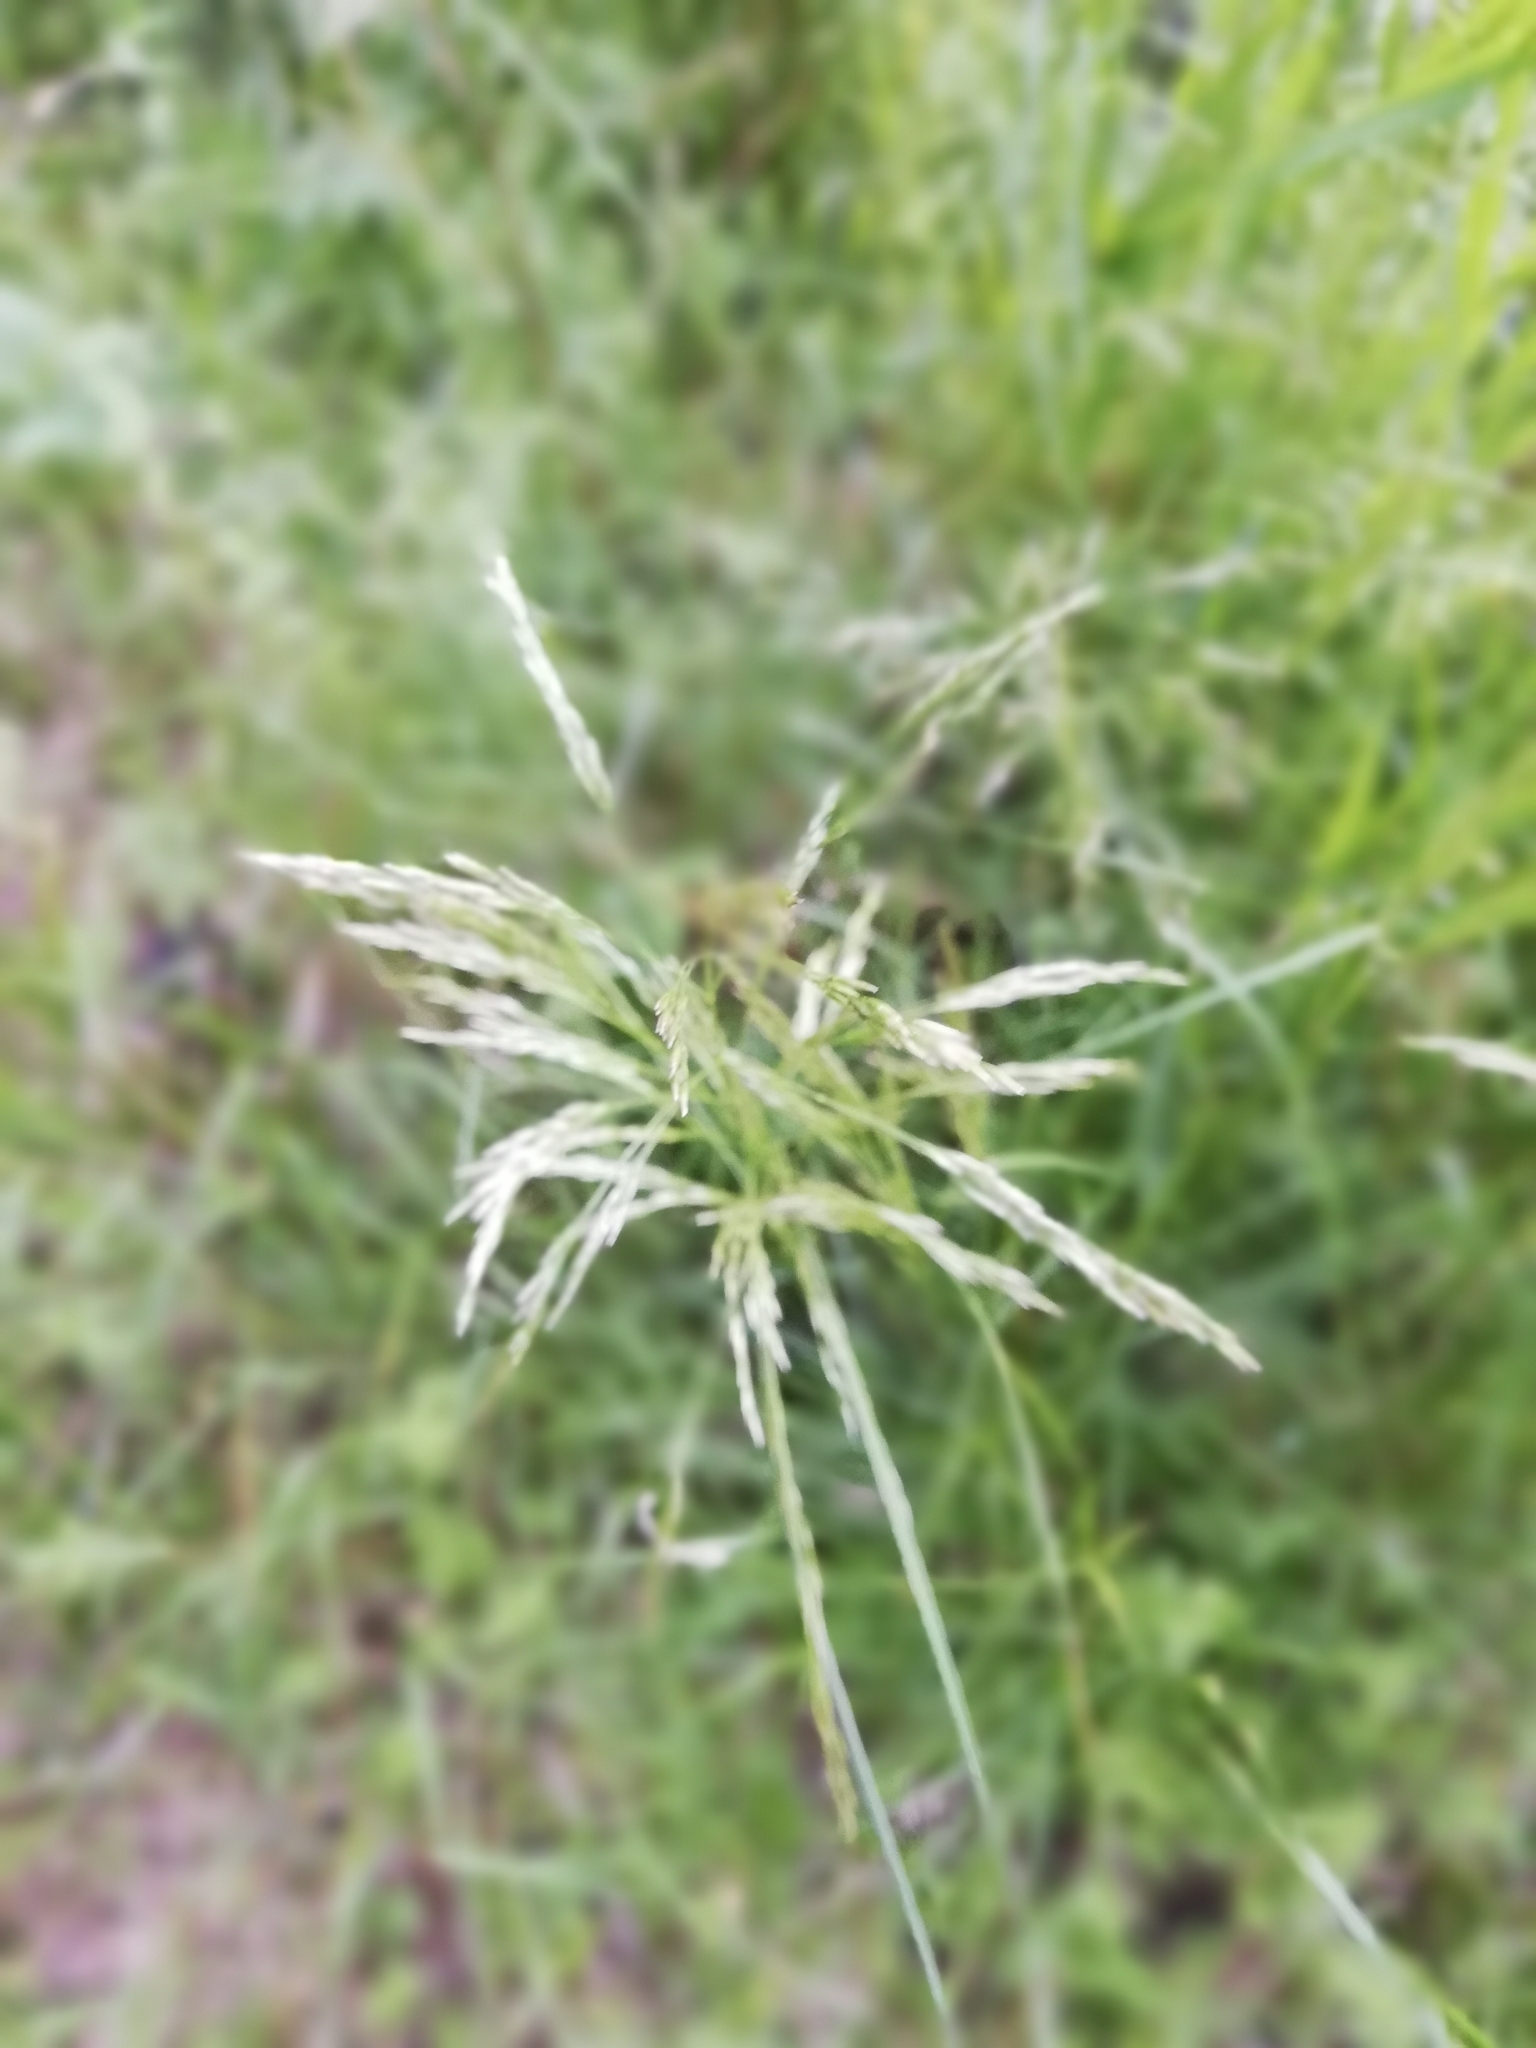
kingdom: Plantae
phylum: Tracheophyta
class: Liliopsida
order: Poales
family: Poaceae
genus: Deschampsia
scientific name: Deschampsia cespitosa
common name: Tufted hair-grass
